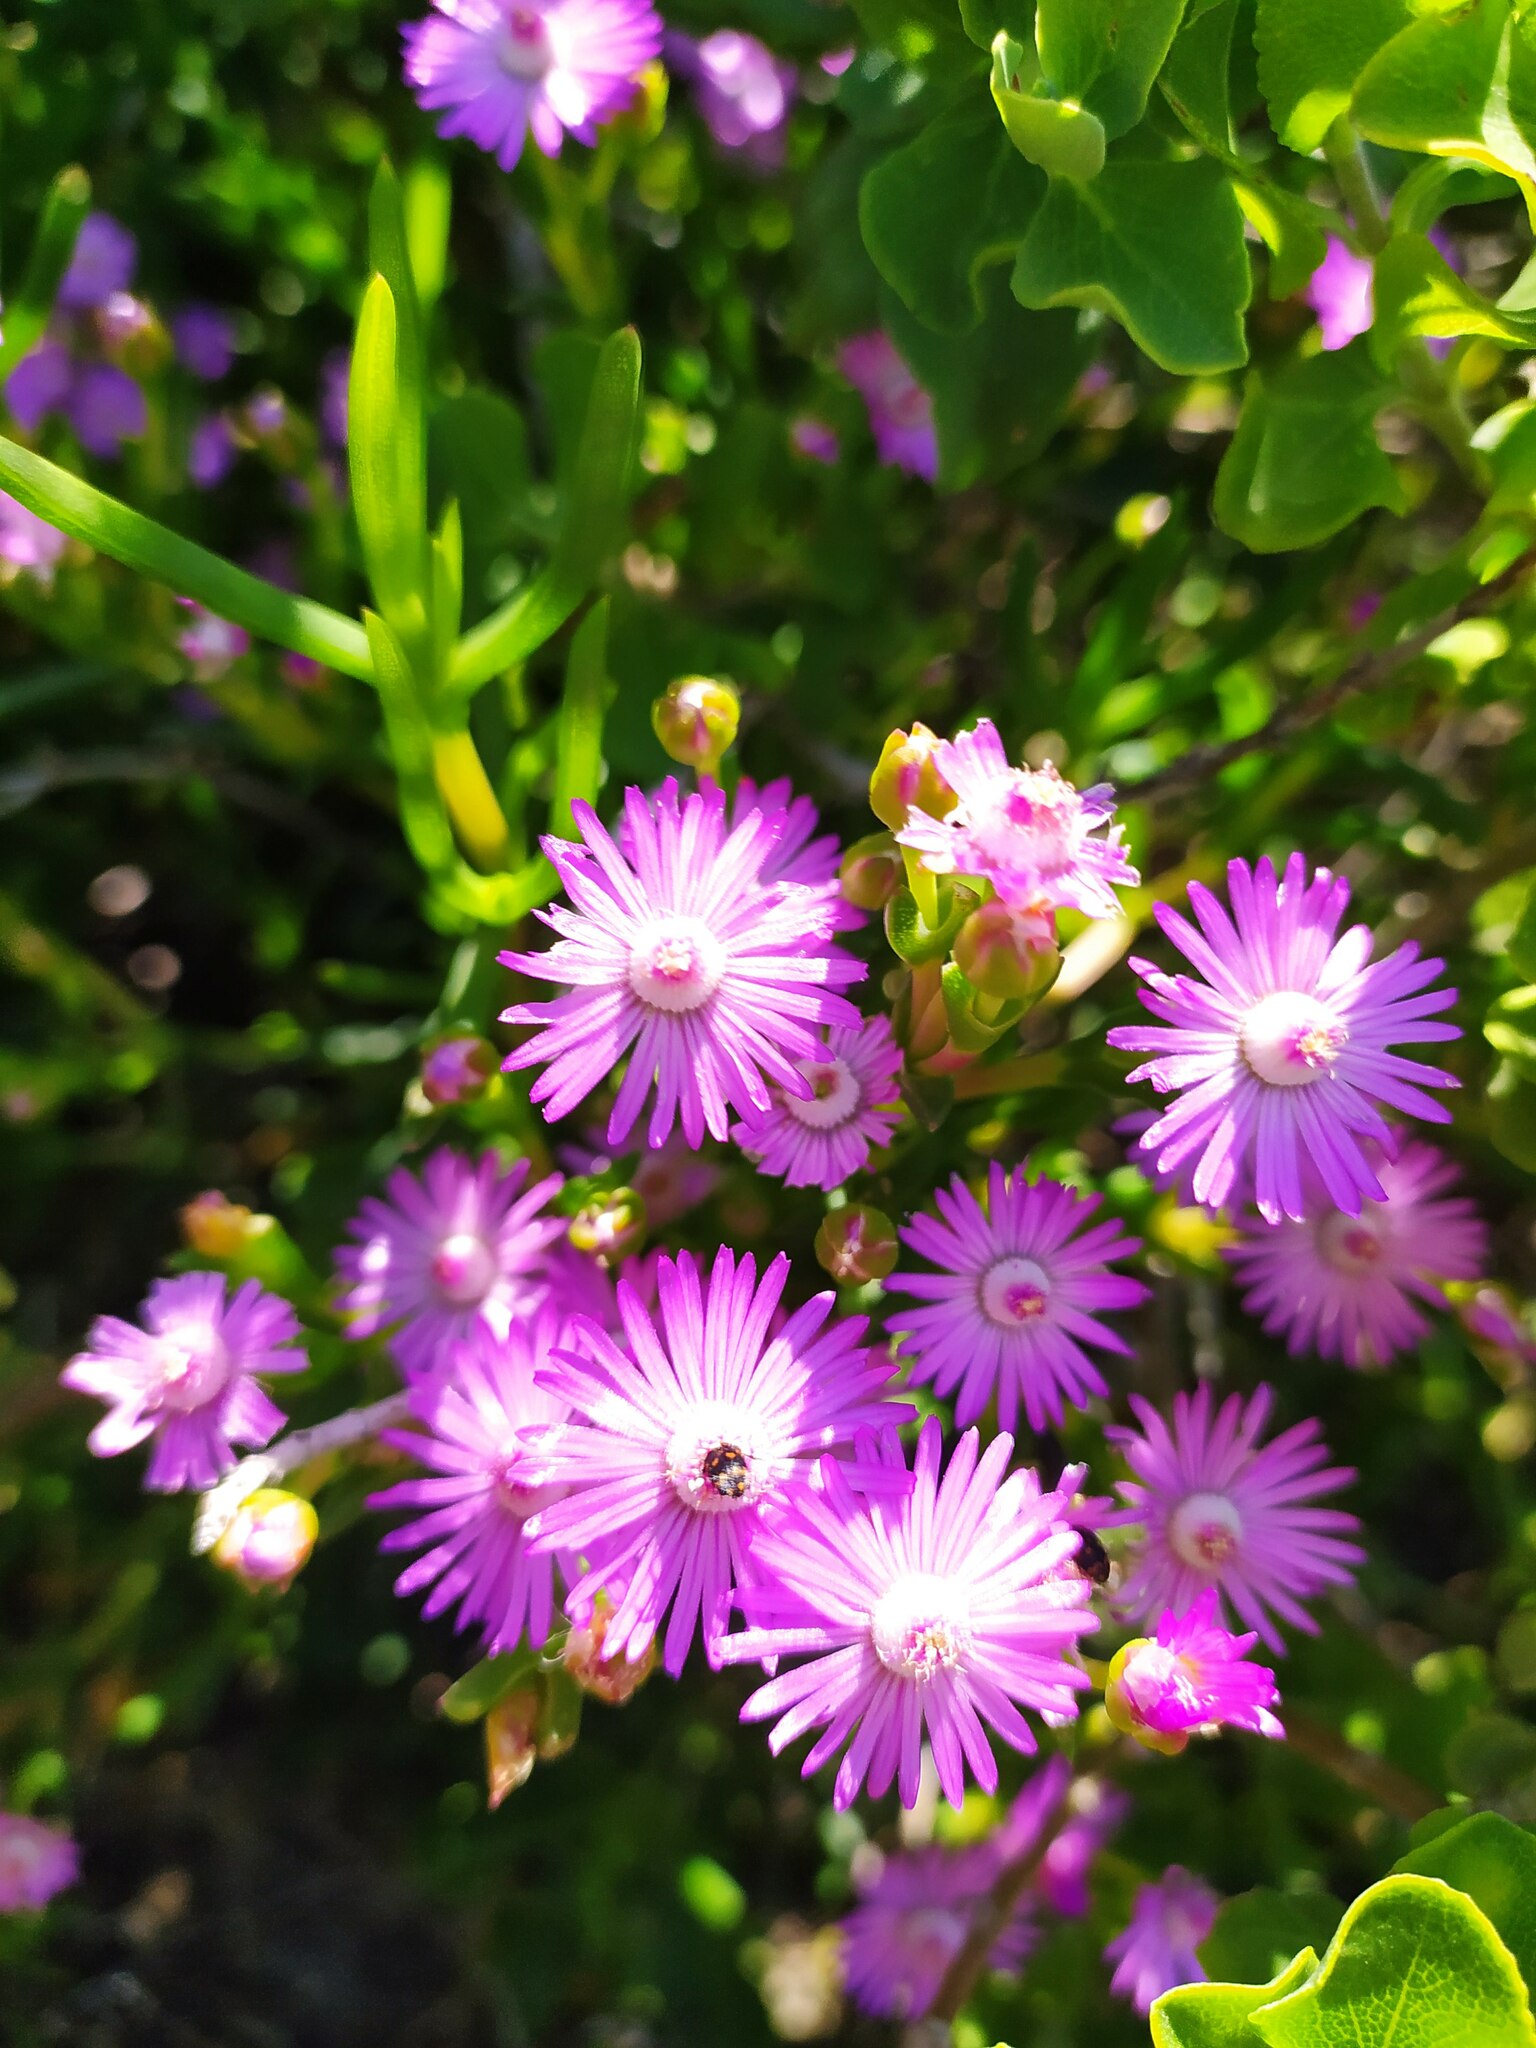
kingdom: Plantae
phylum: Tracheophyta
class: Magnoliopsida
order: Caryophyllales
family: Aizoaceae
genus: Ruschia
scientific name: Ruschia macowanii
